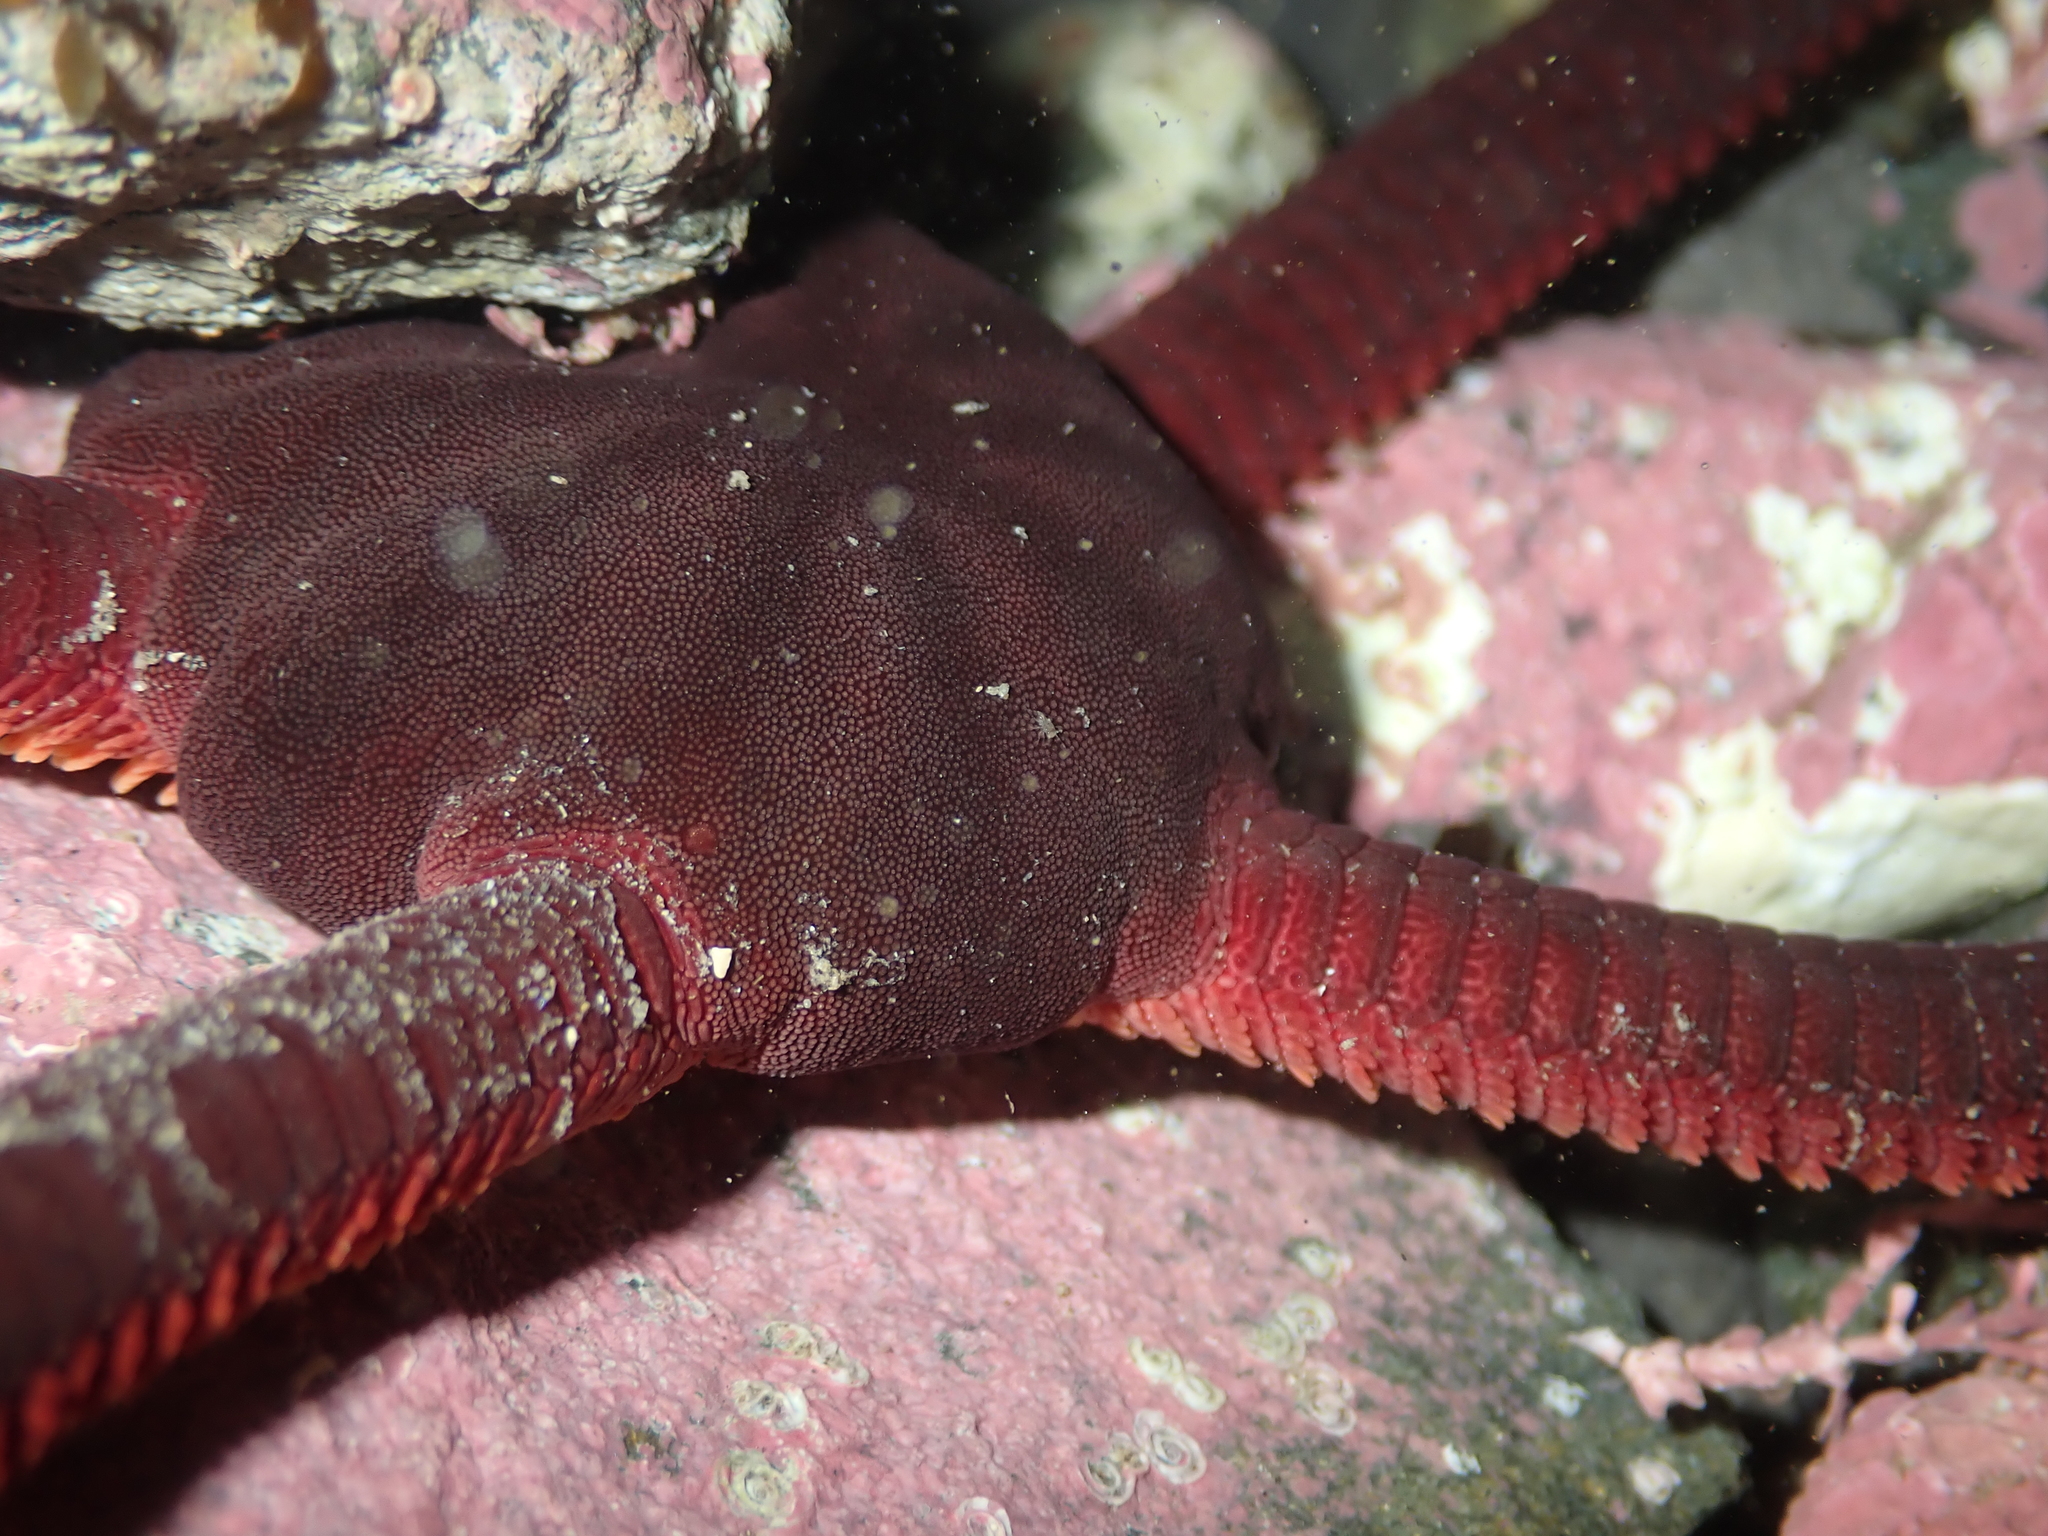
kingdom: Animalia
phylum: Echinodermata
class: Ophiuroidea
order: Ophiacanthida
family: Ophiodermatidae
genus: Ophiopsammus
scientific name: Ophiopsammus maculata
